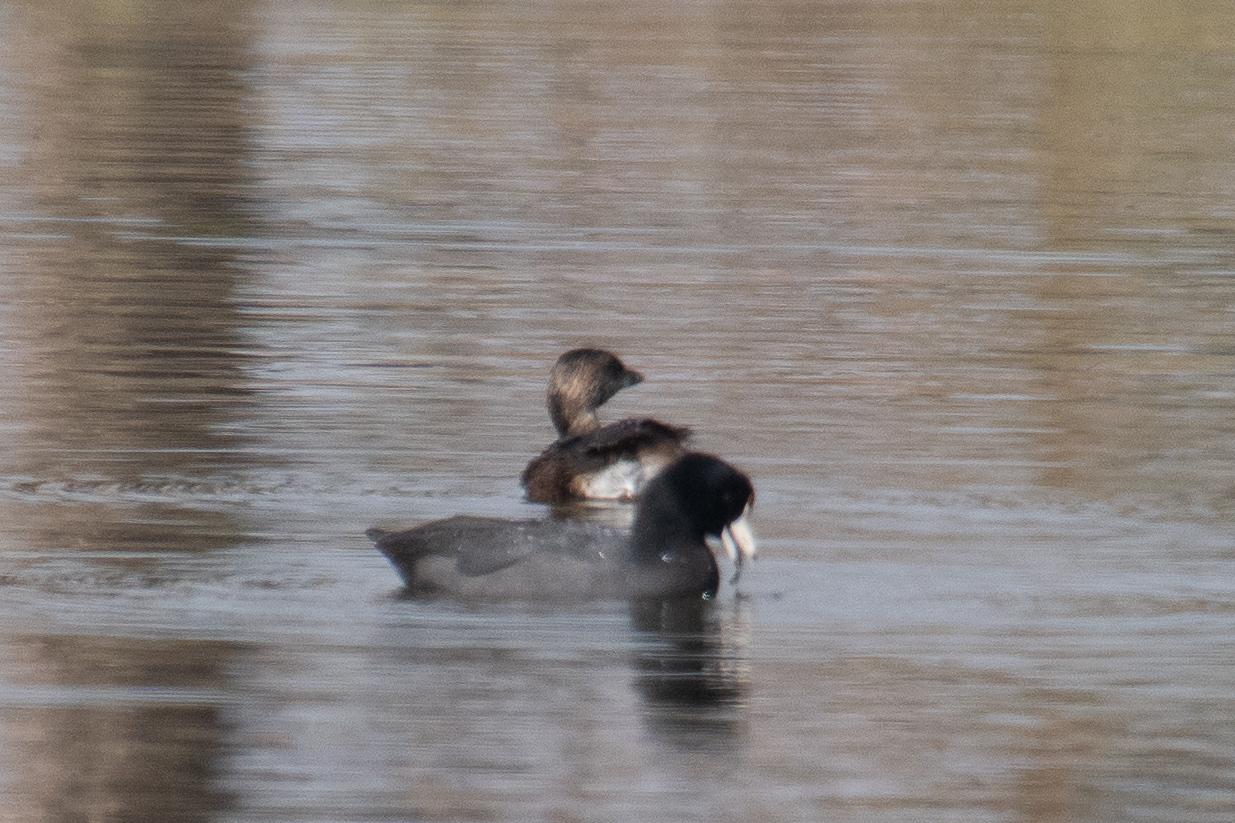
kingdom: Animalia
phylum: Chordata
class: Aves
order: Gruiformes
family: Rallidae
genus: Fulica
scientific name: Fulica americana
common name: American coot
